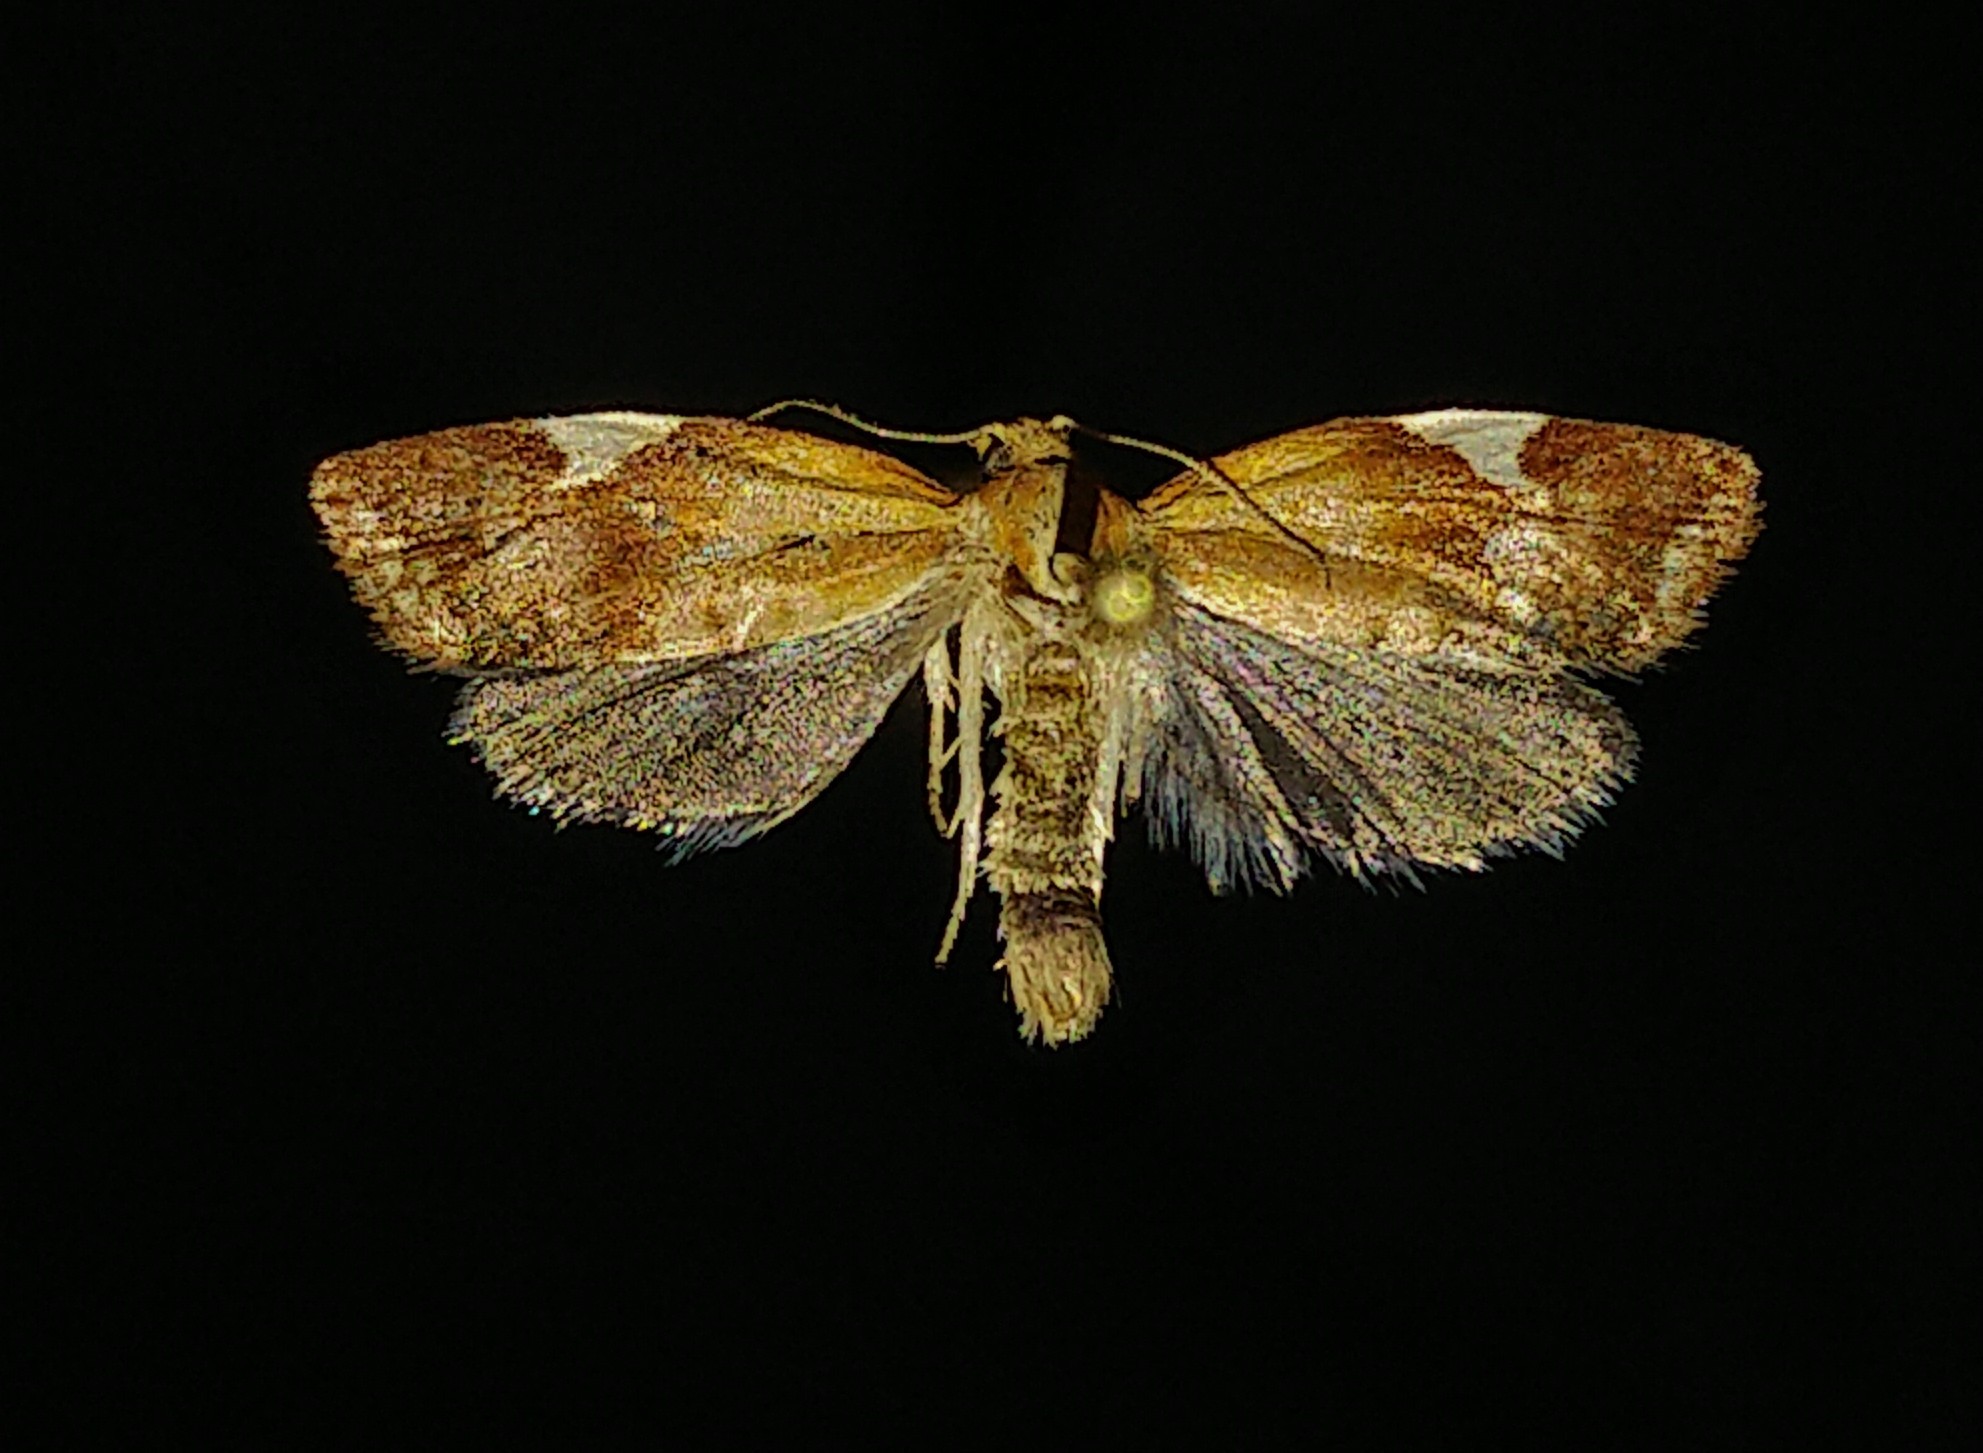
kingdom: Animalia
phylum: Arthropoda
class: Insecta
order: Lepidoptera
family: Tortricidae
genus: Clepsis
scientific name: Clepsis persicana
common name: White triangle tortrix
